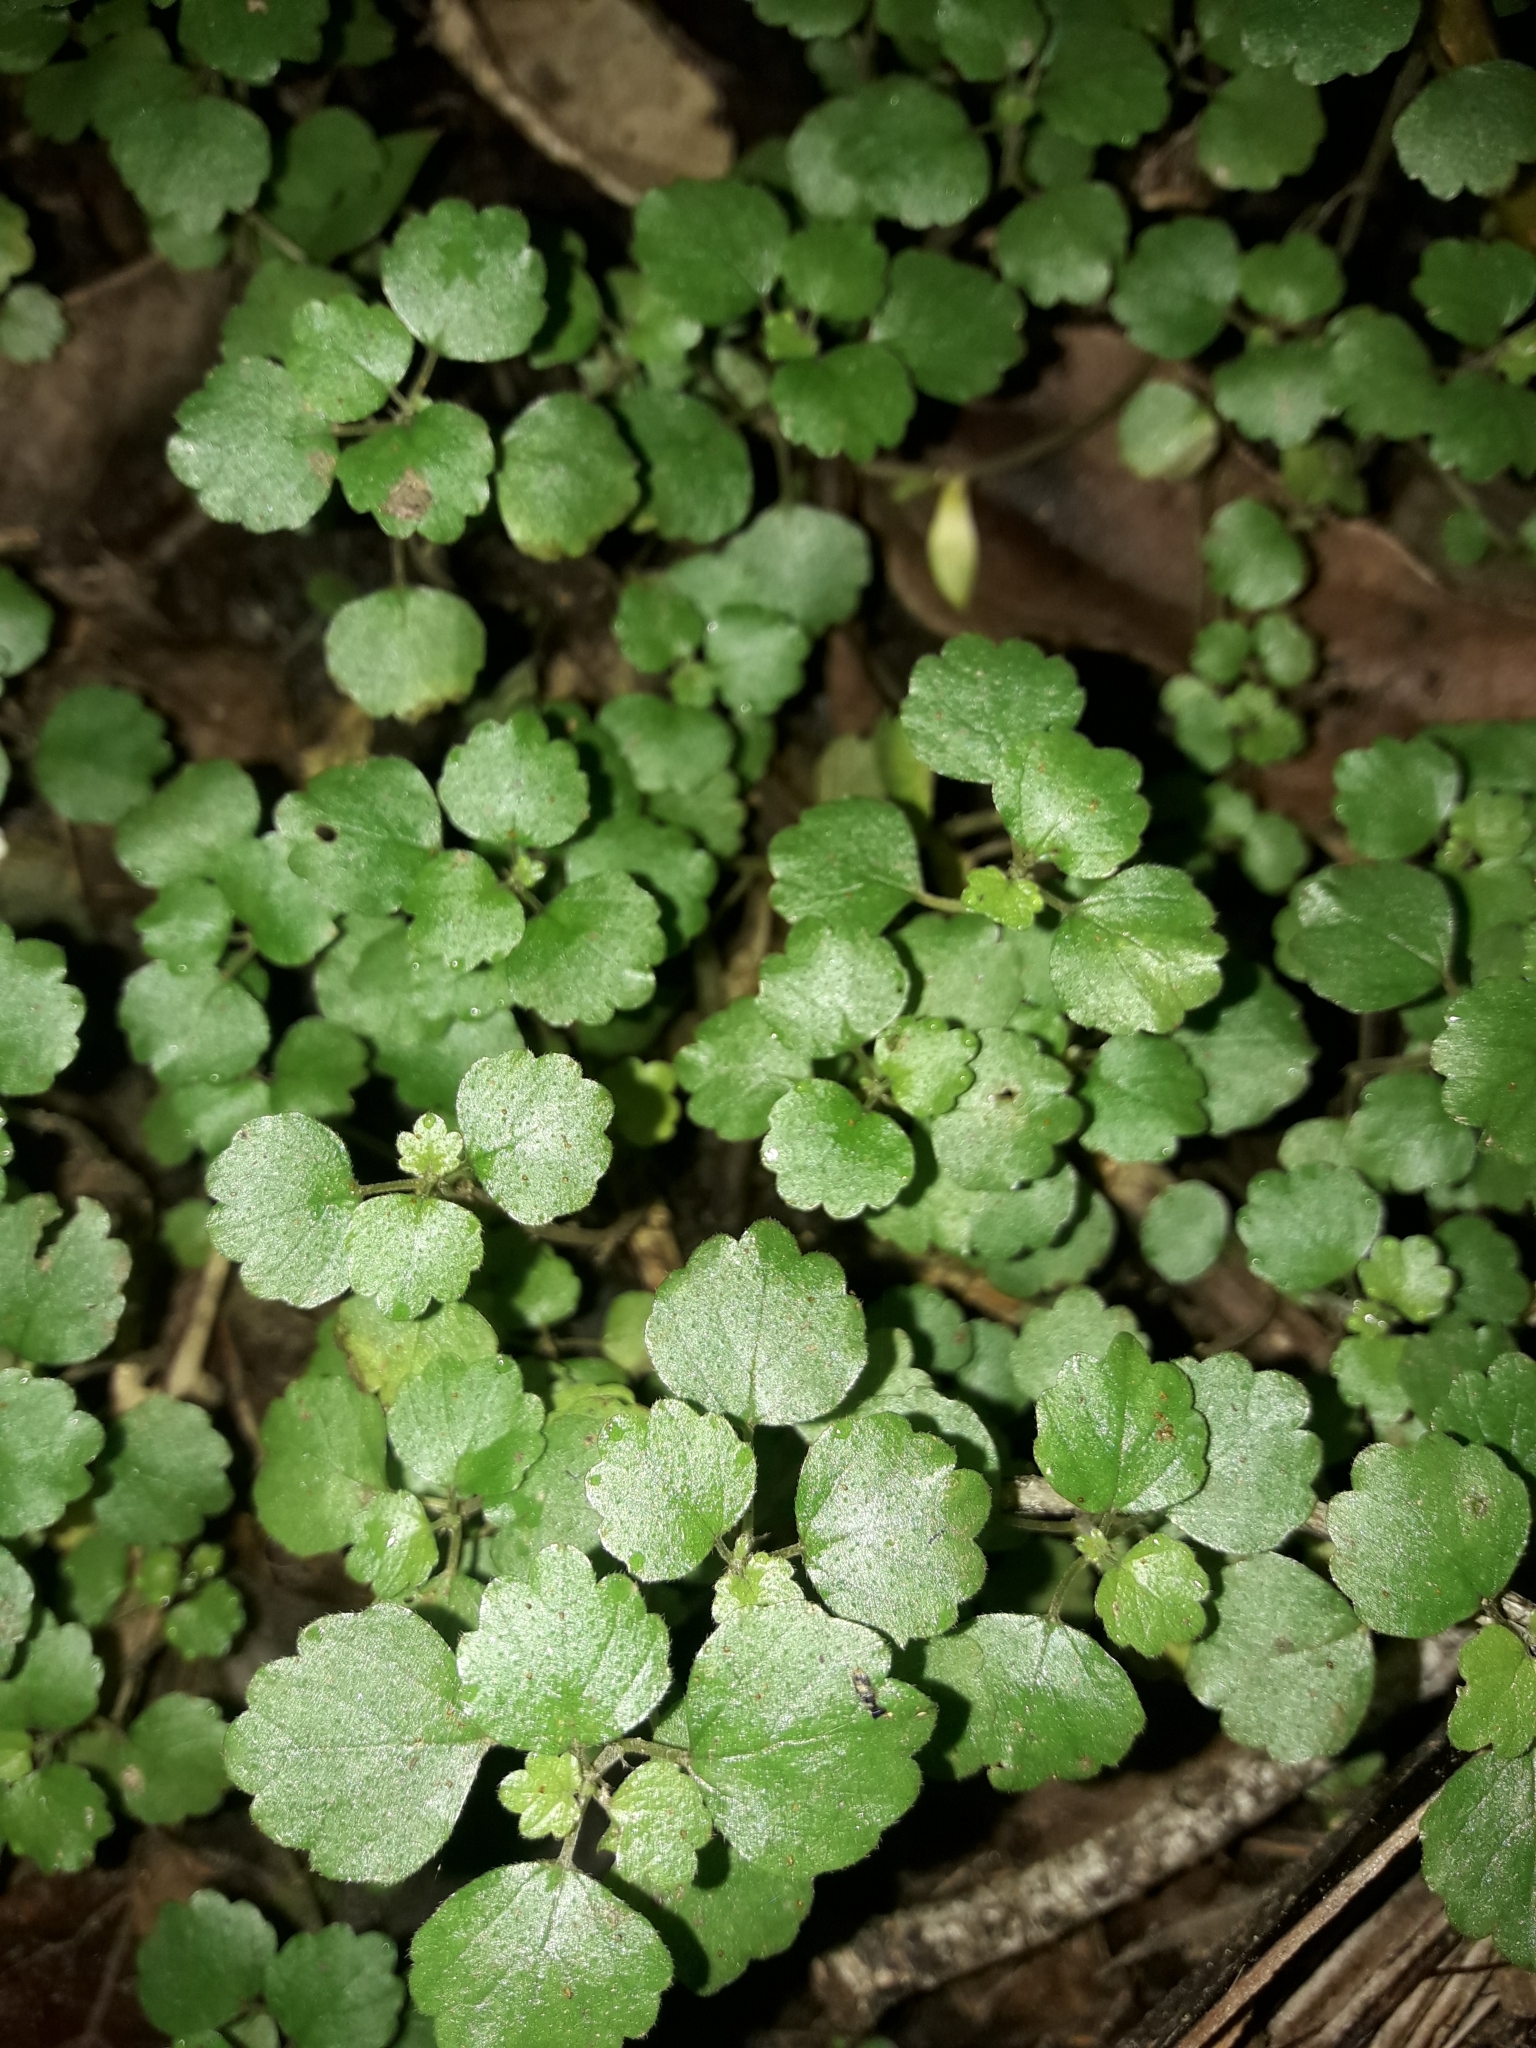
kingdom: Plantae
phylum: Tracheophyta
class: Magnoliopsida
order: Rosales
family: Urticaceae
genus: Australina
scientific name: Australina pusilla
